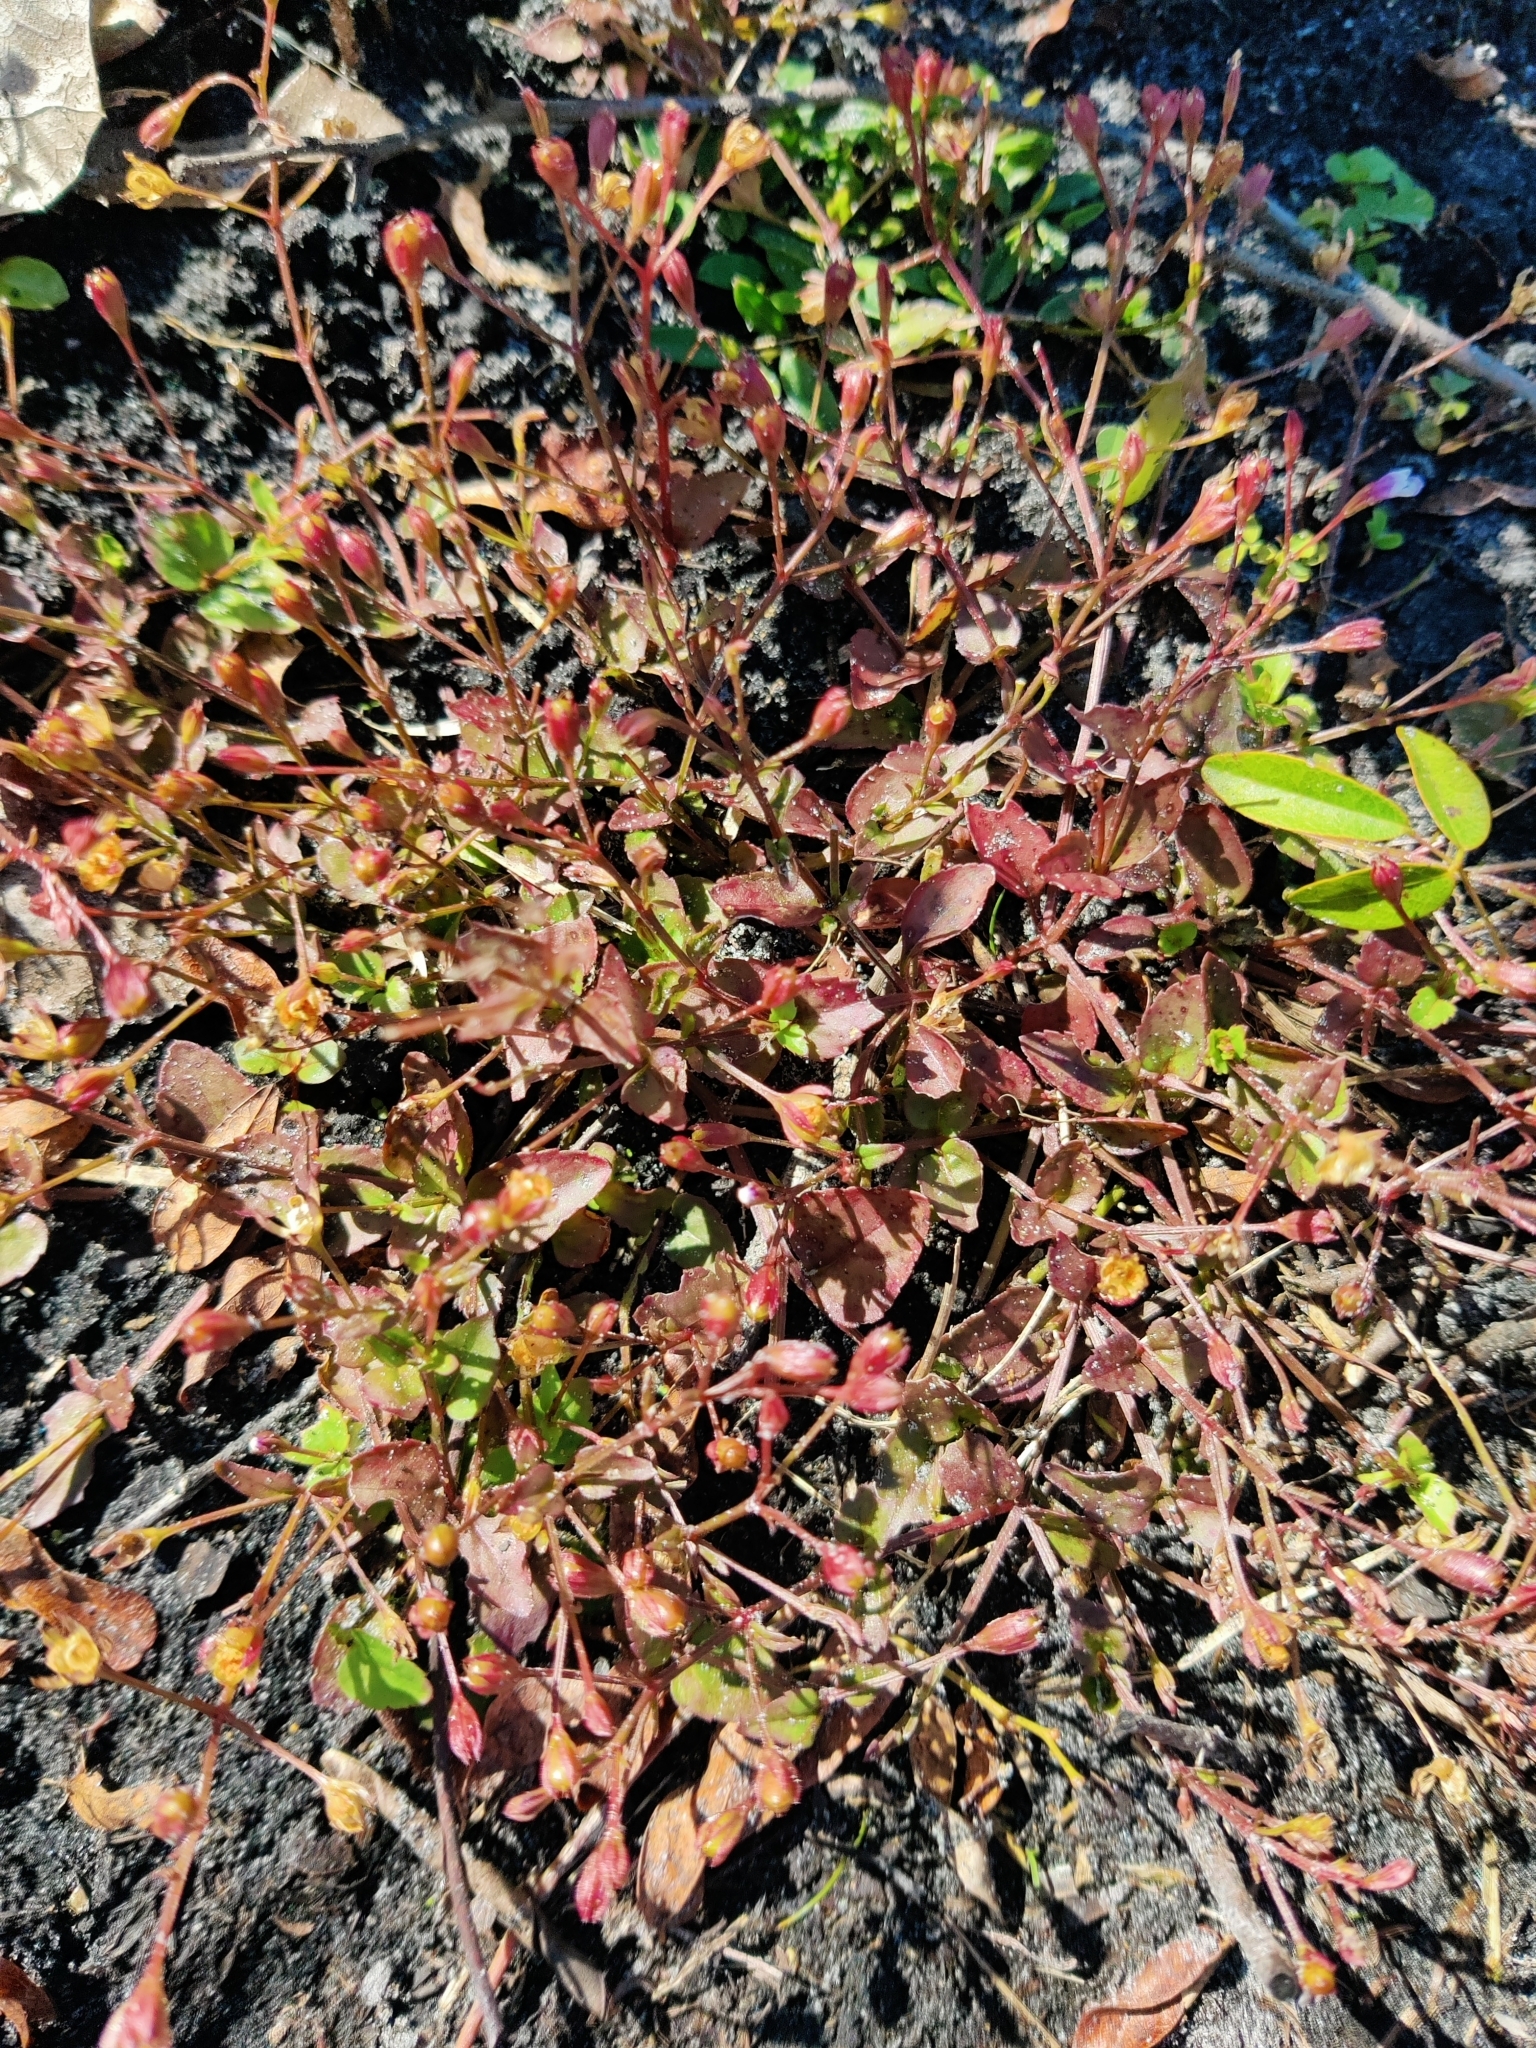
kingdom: Plantae
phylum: Tracheophyta
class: Magnoliopsida
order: Lamiales
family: Linderniaceae
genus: Torenia
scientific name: Torenia crustacea
